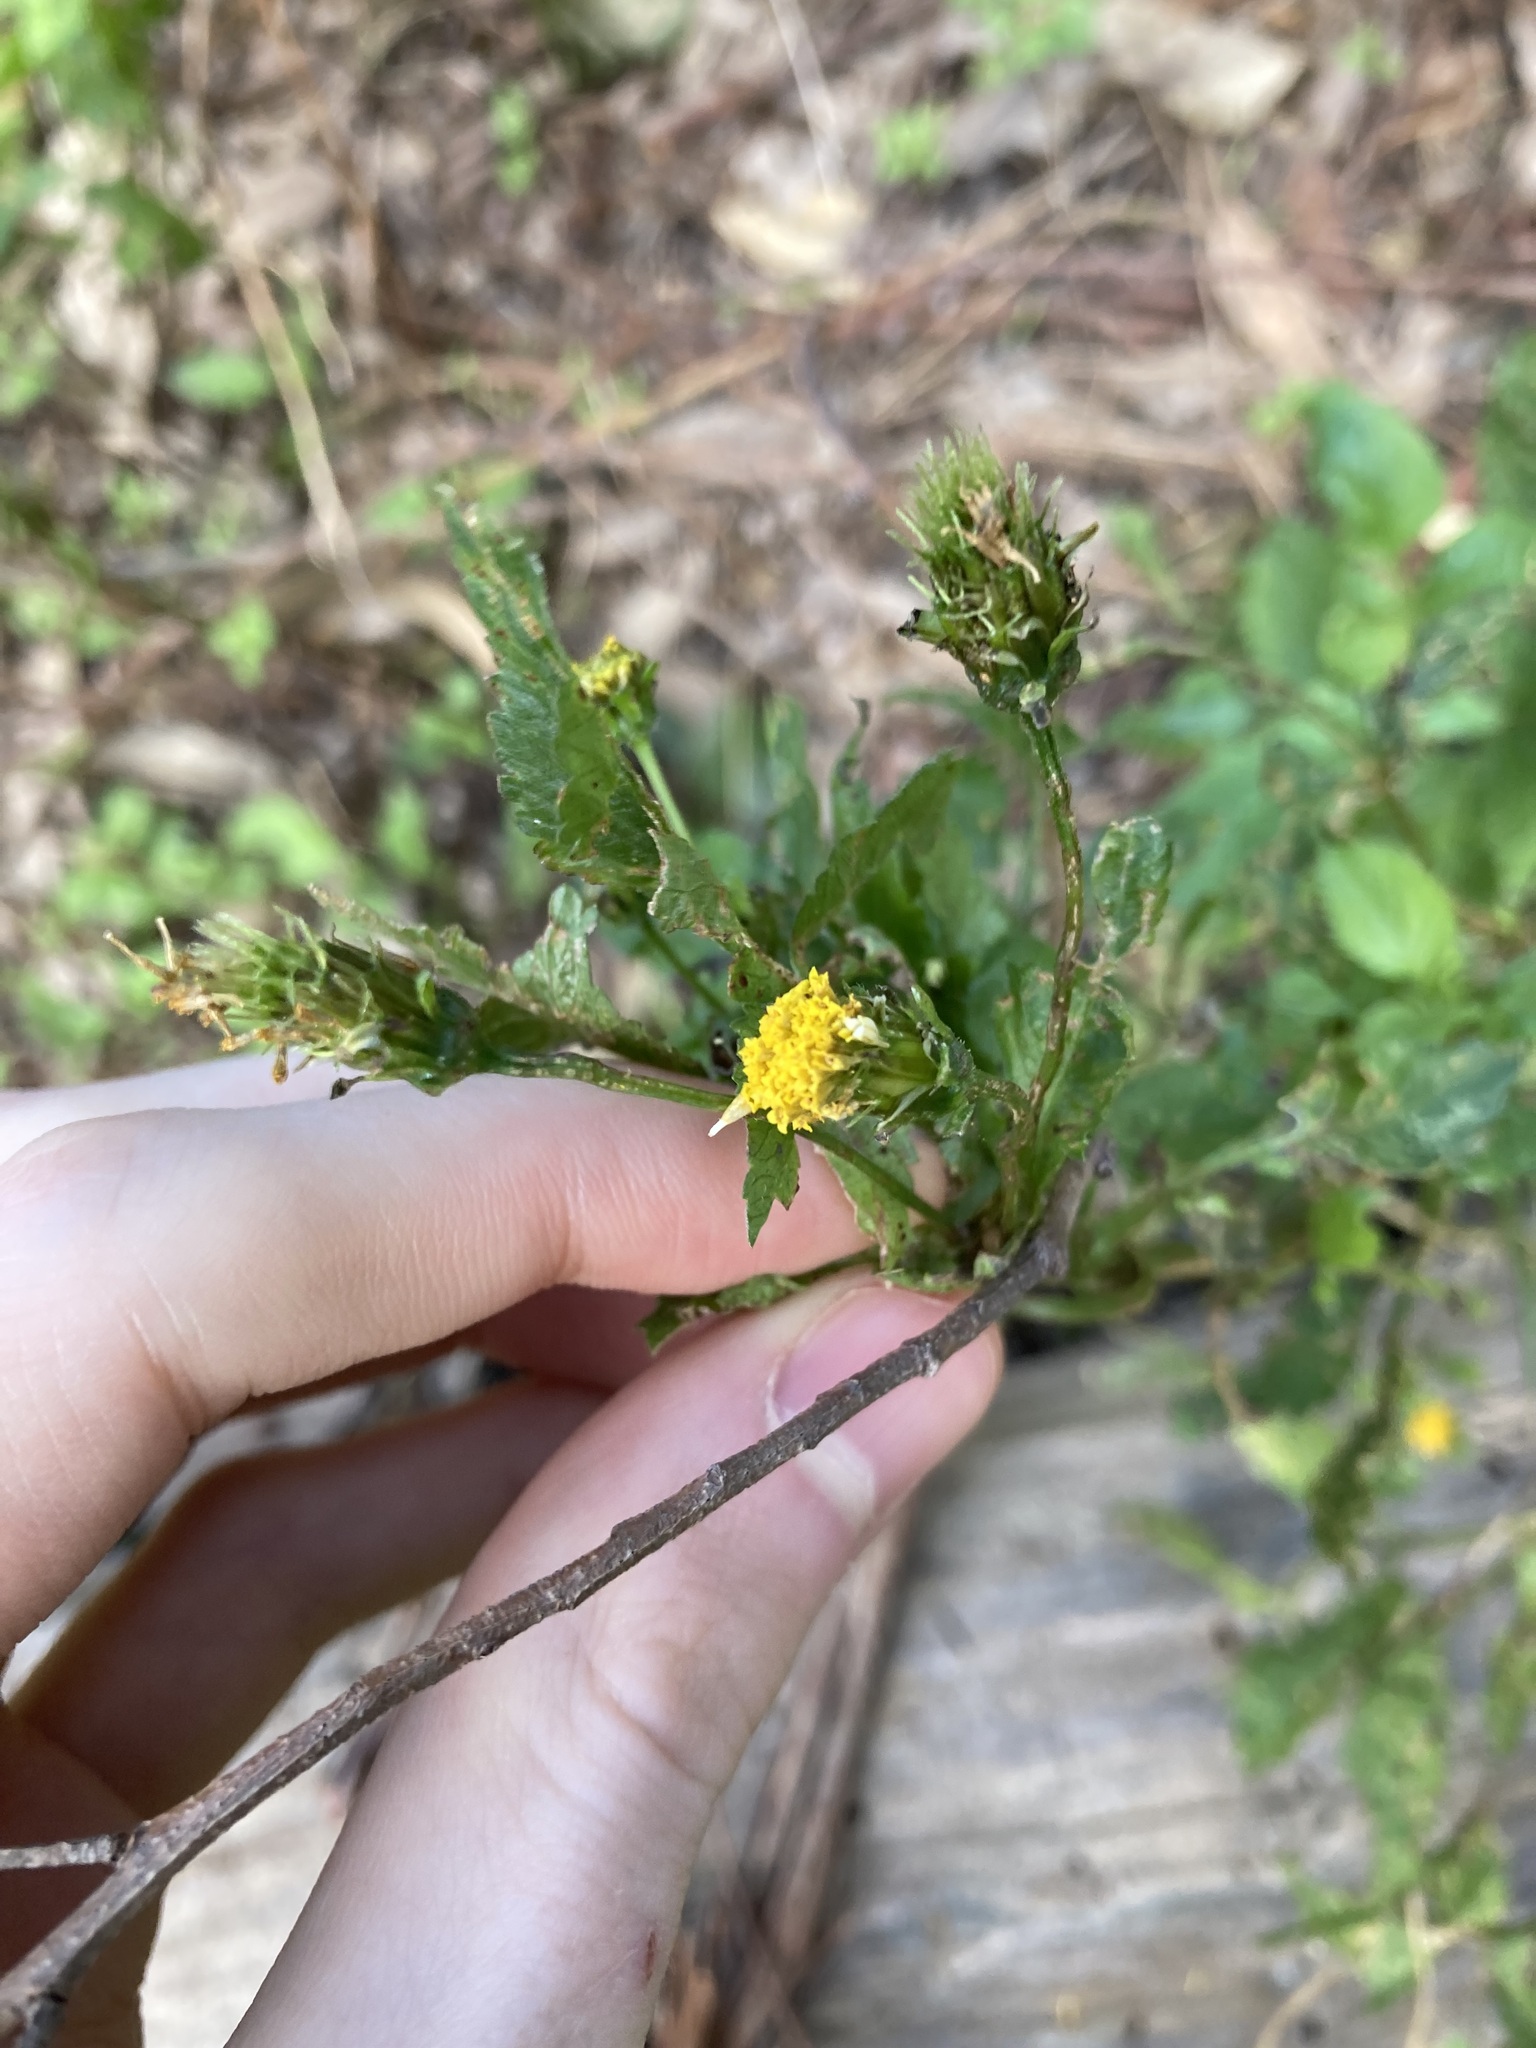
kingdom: Plantae
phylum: Tracheophyta
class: Magnoliopsida
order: Asterales
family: Asteraceae
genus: Bidens
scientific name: Bidens pilosa
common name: Black-jack
